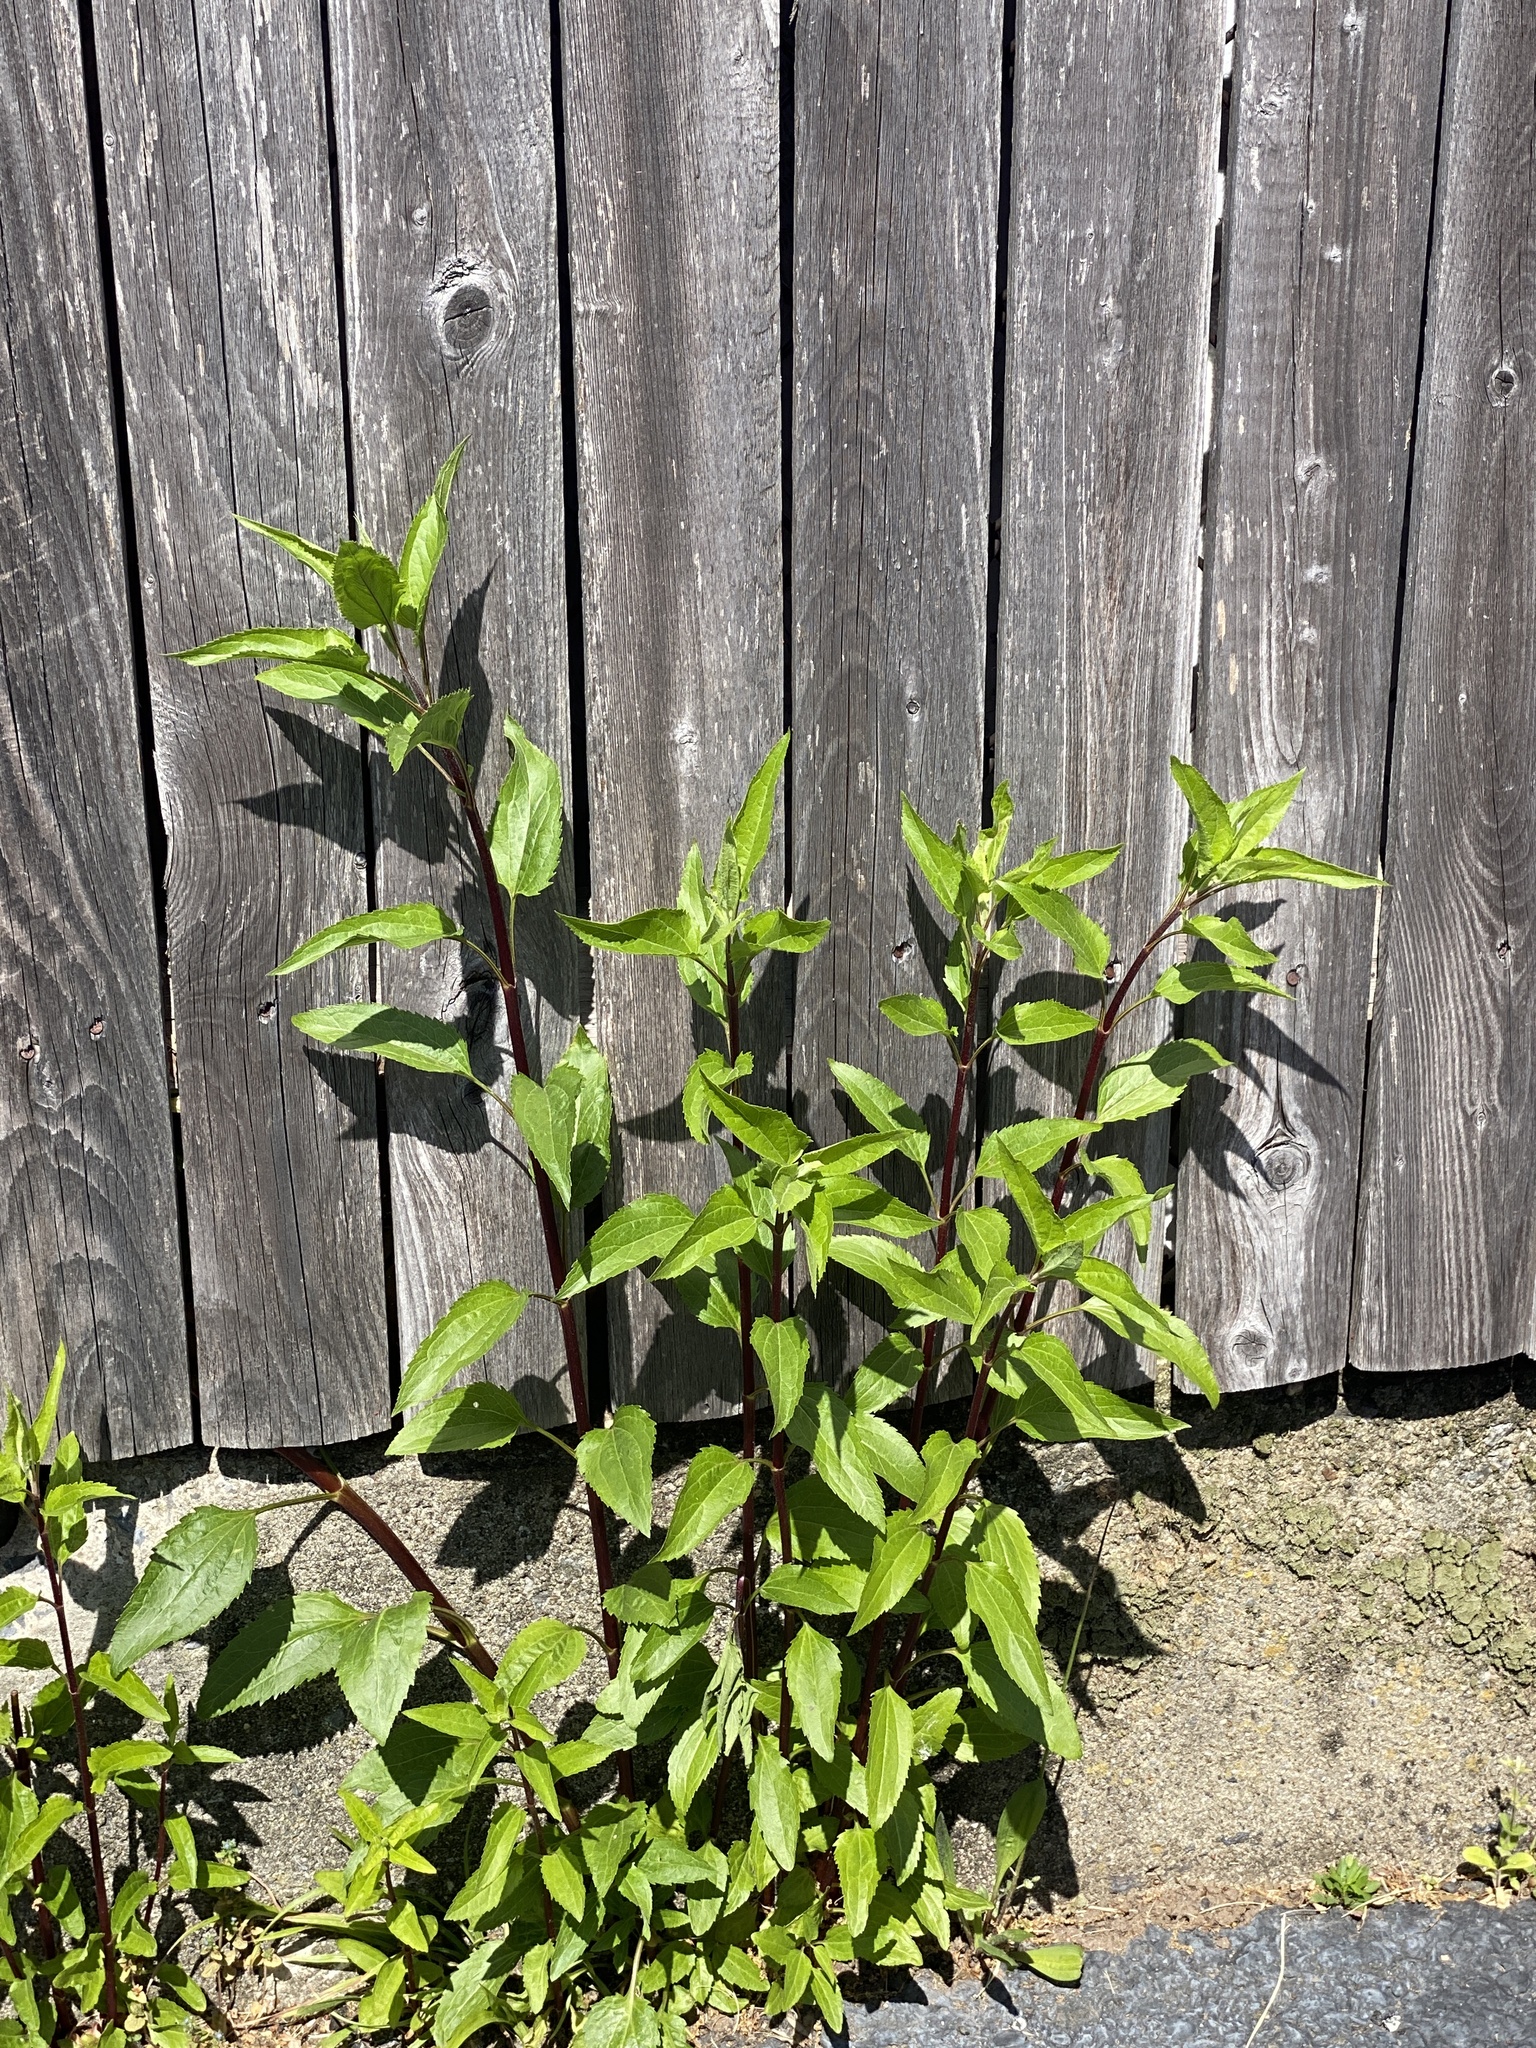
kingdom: Plantae
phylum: Tracheophyta
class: Magnoliopsida
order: Asterales
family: Asteraceae
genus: Eupatorium
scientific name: Eupatorium serotinum
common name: Late boneset
